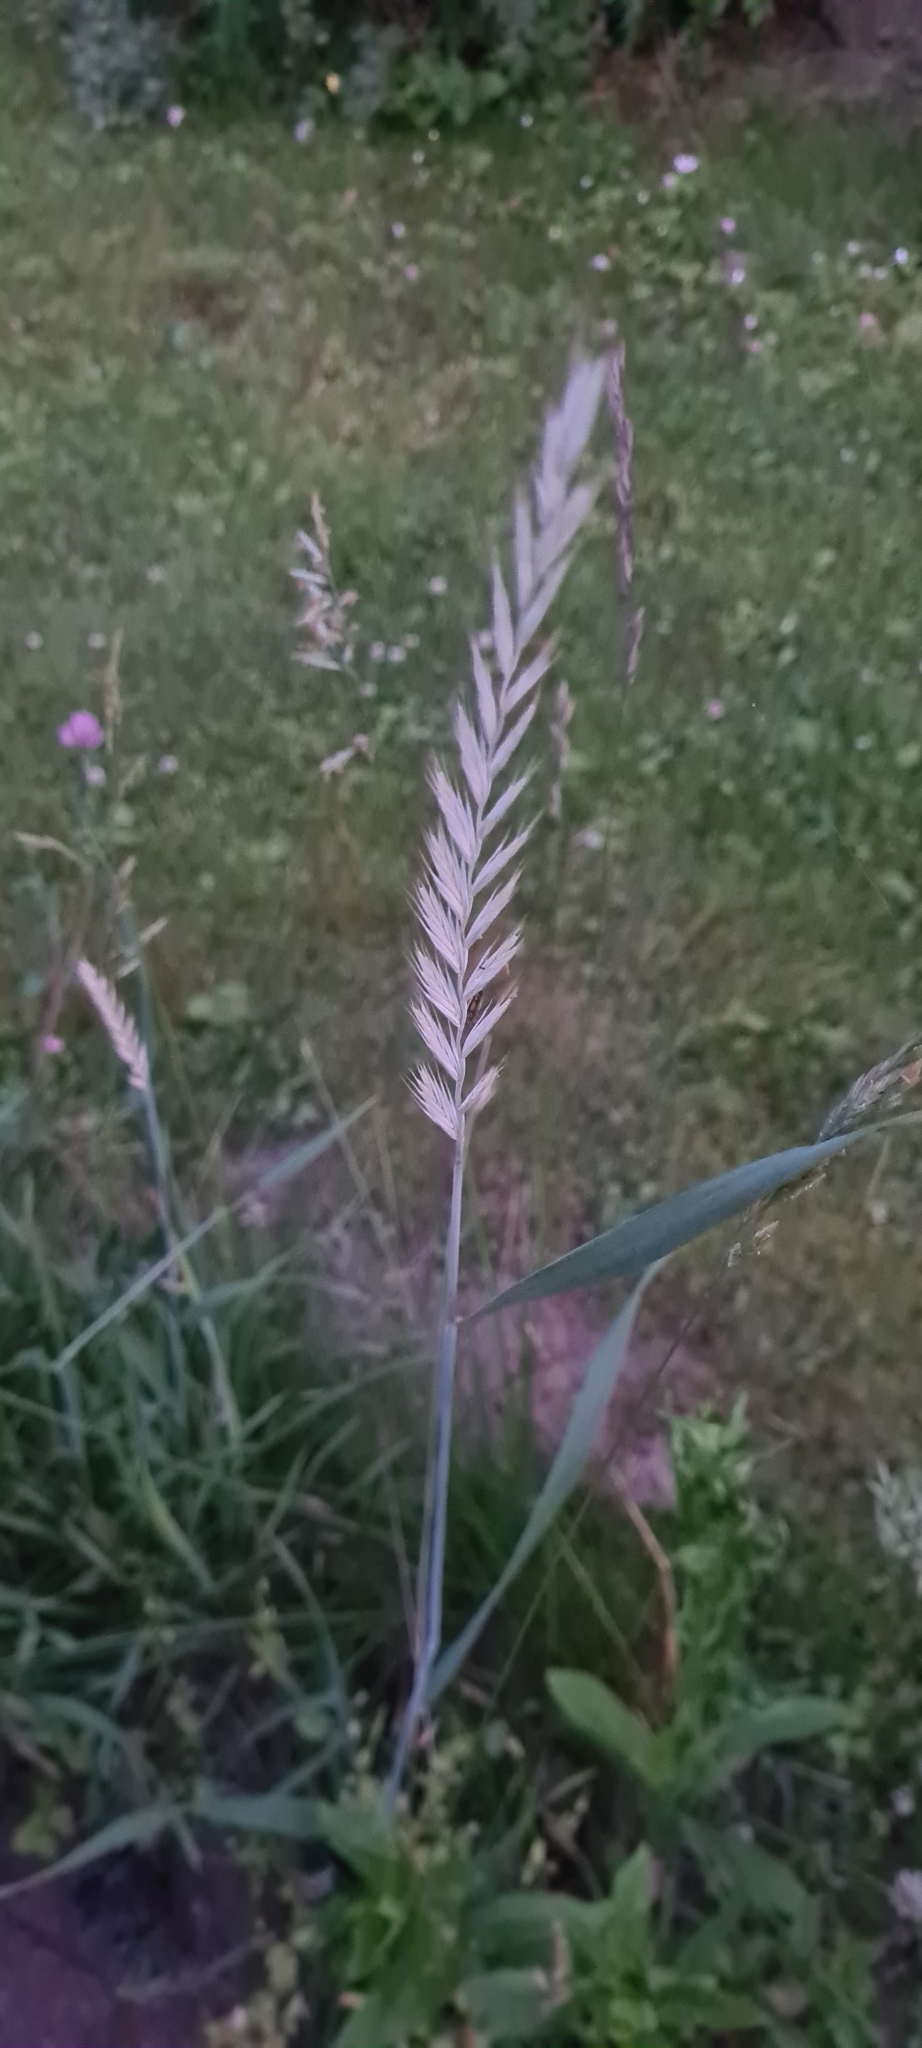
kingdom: Plantae
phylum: Tracheophyta
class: Liliopsida
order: Poales
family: Poaceae
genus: Elymus
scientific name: Elymus repens
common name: Quackgrass
